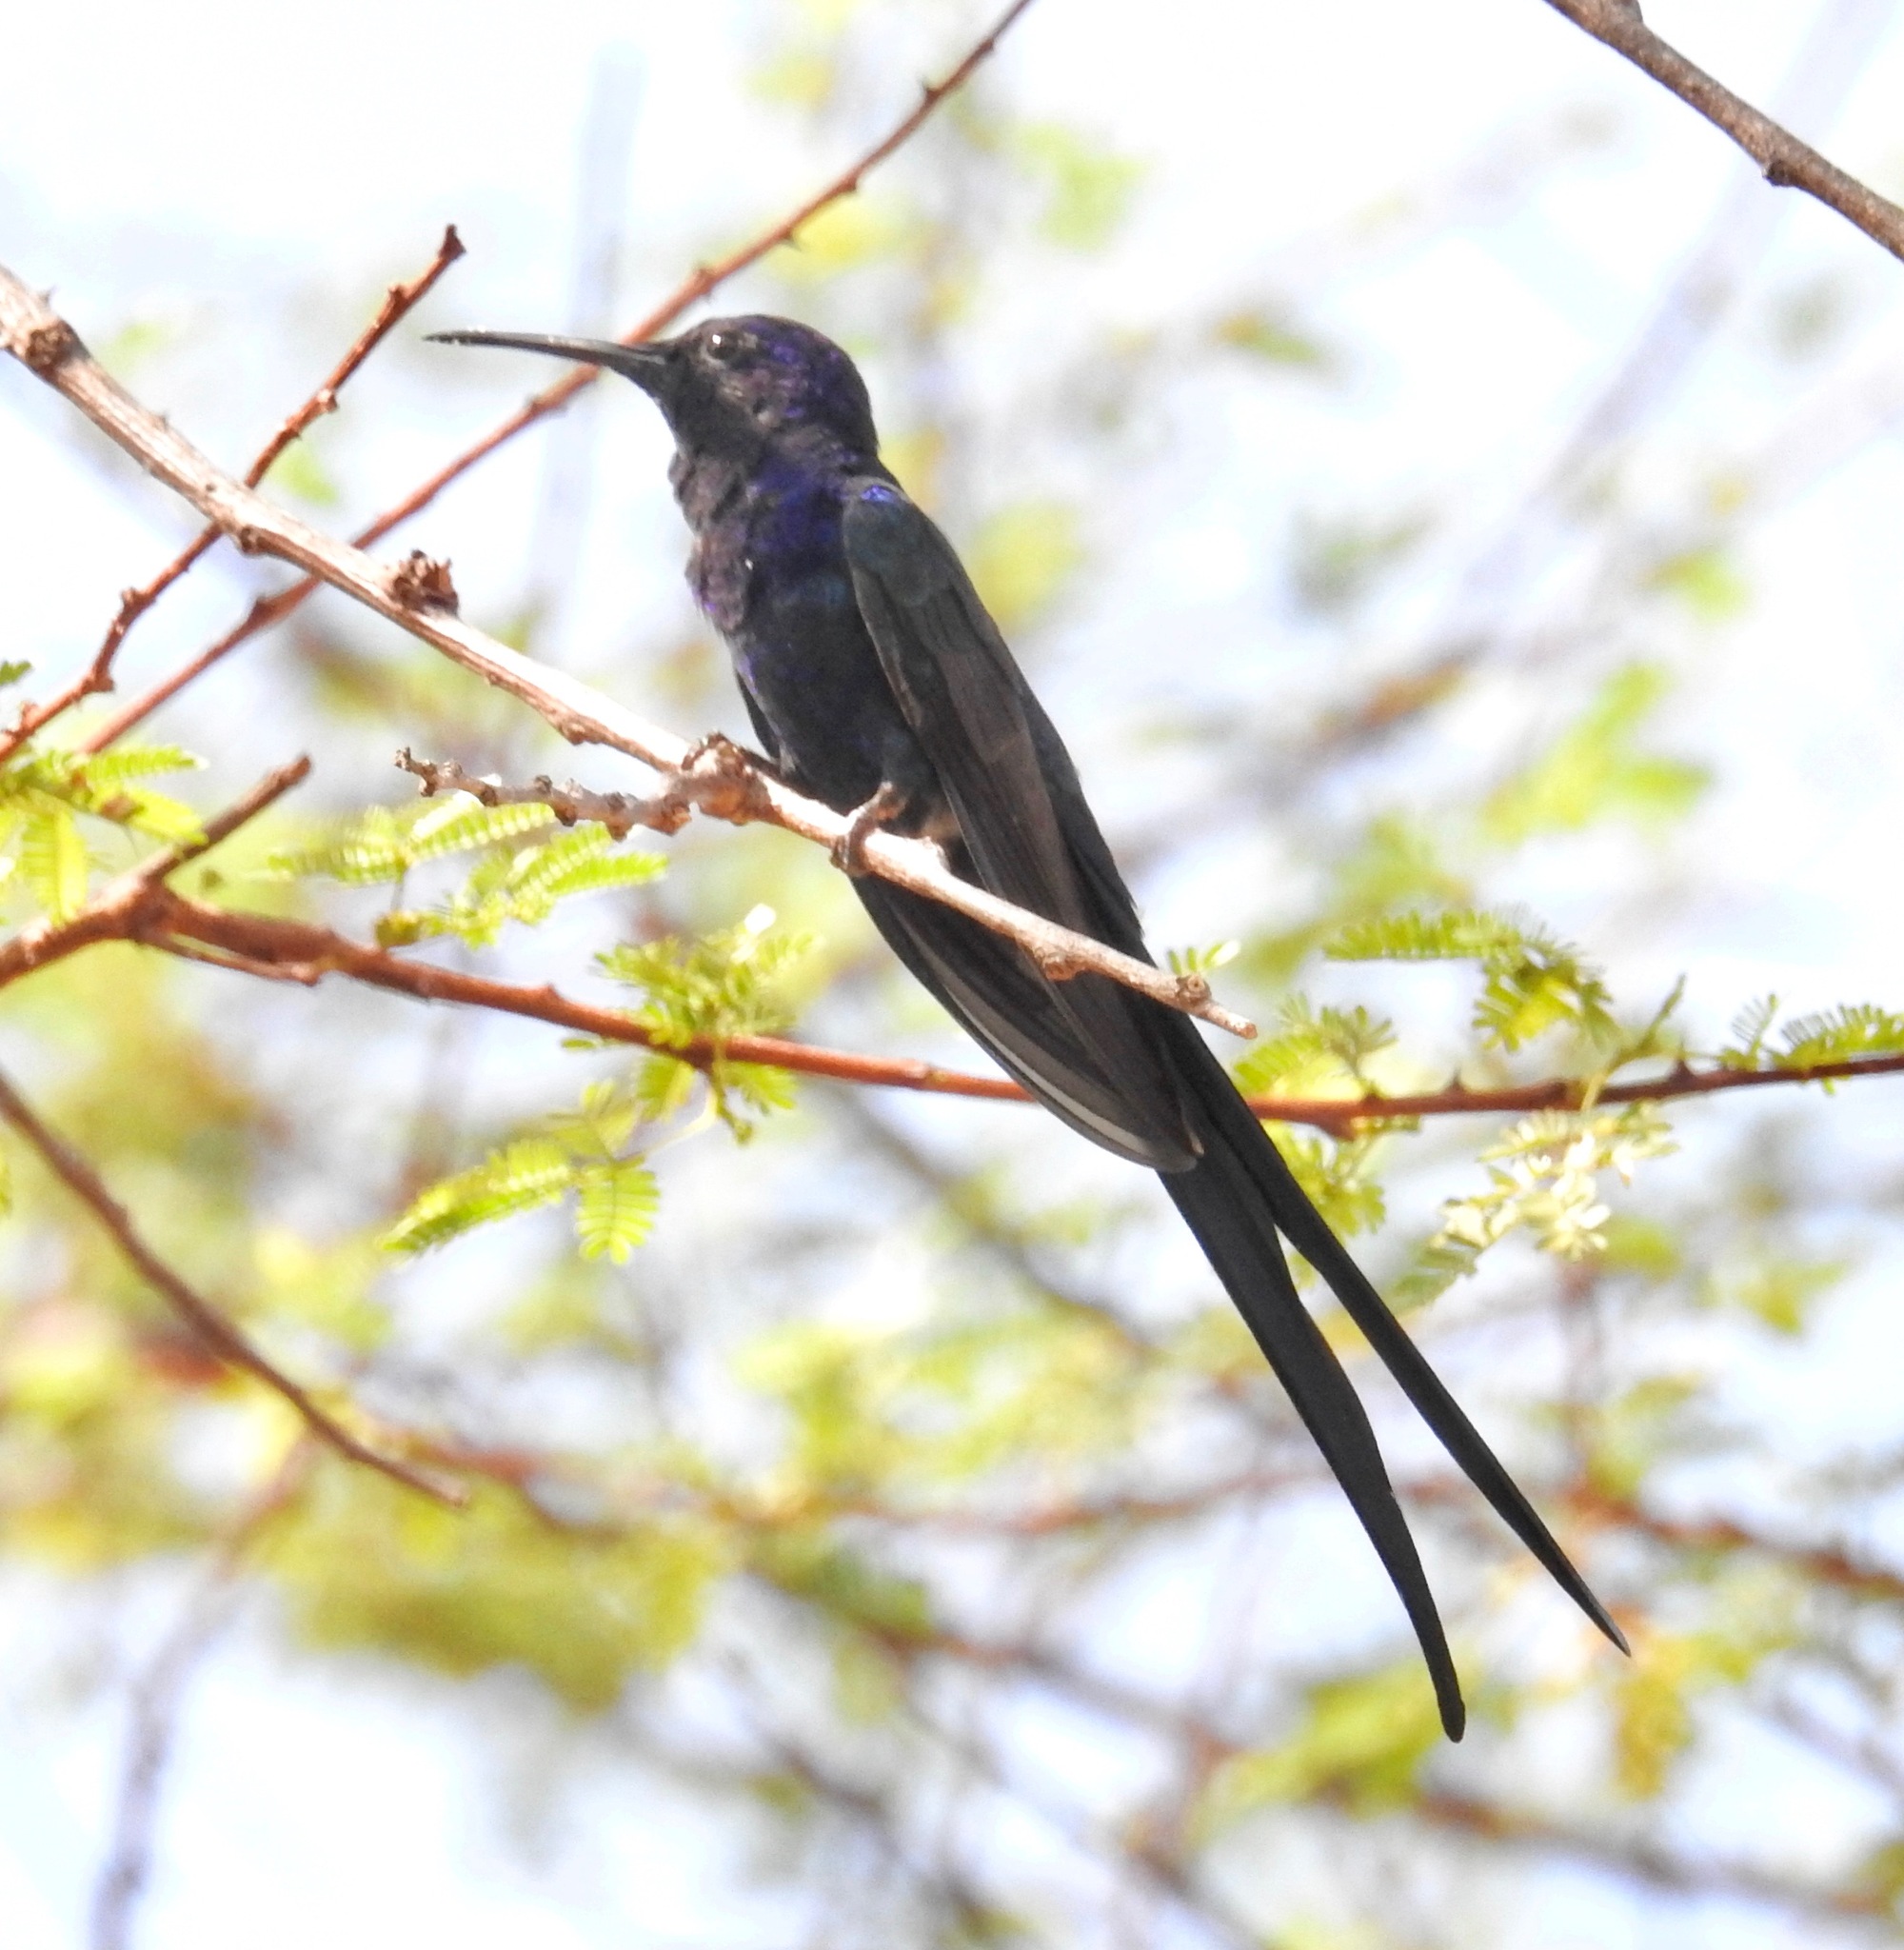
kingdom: Animalia
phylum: Chordata
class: Aves
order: Apodiformes
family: Trochilidae
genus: Eupetomena
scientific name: Eupetomena macroura
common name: Swallow-tailed hummingbird
